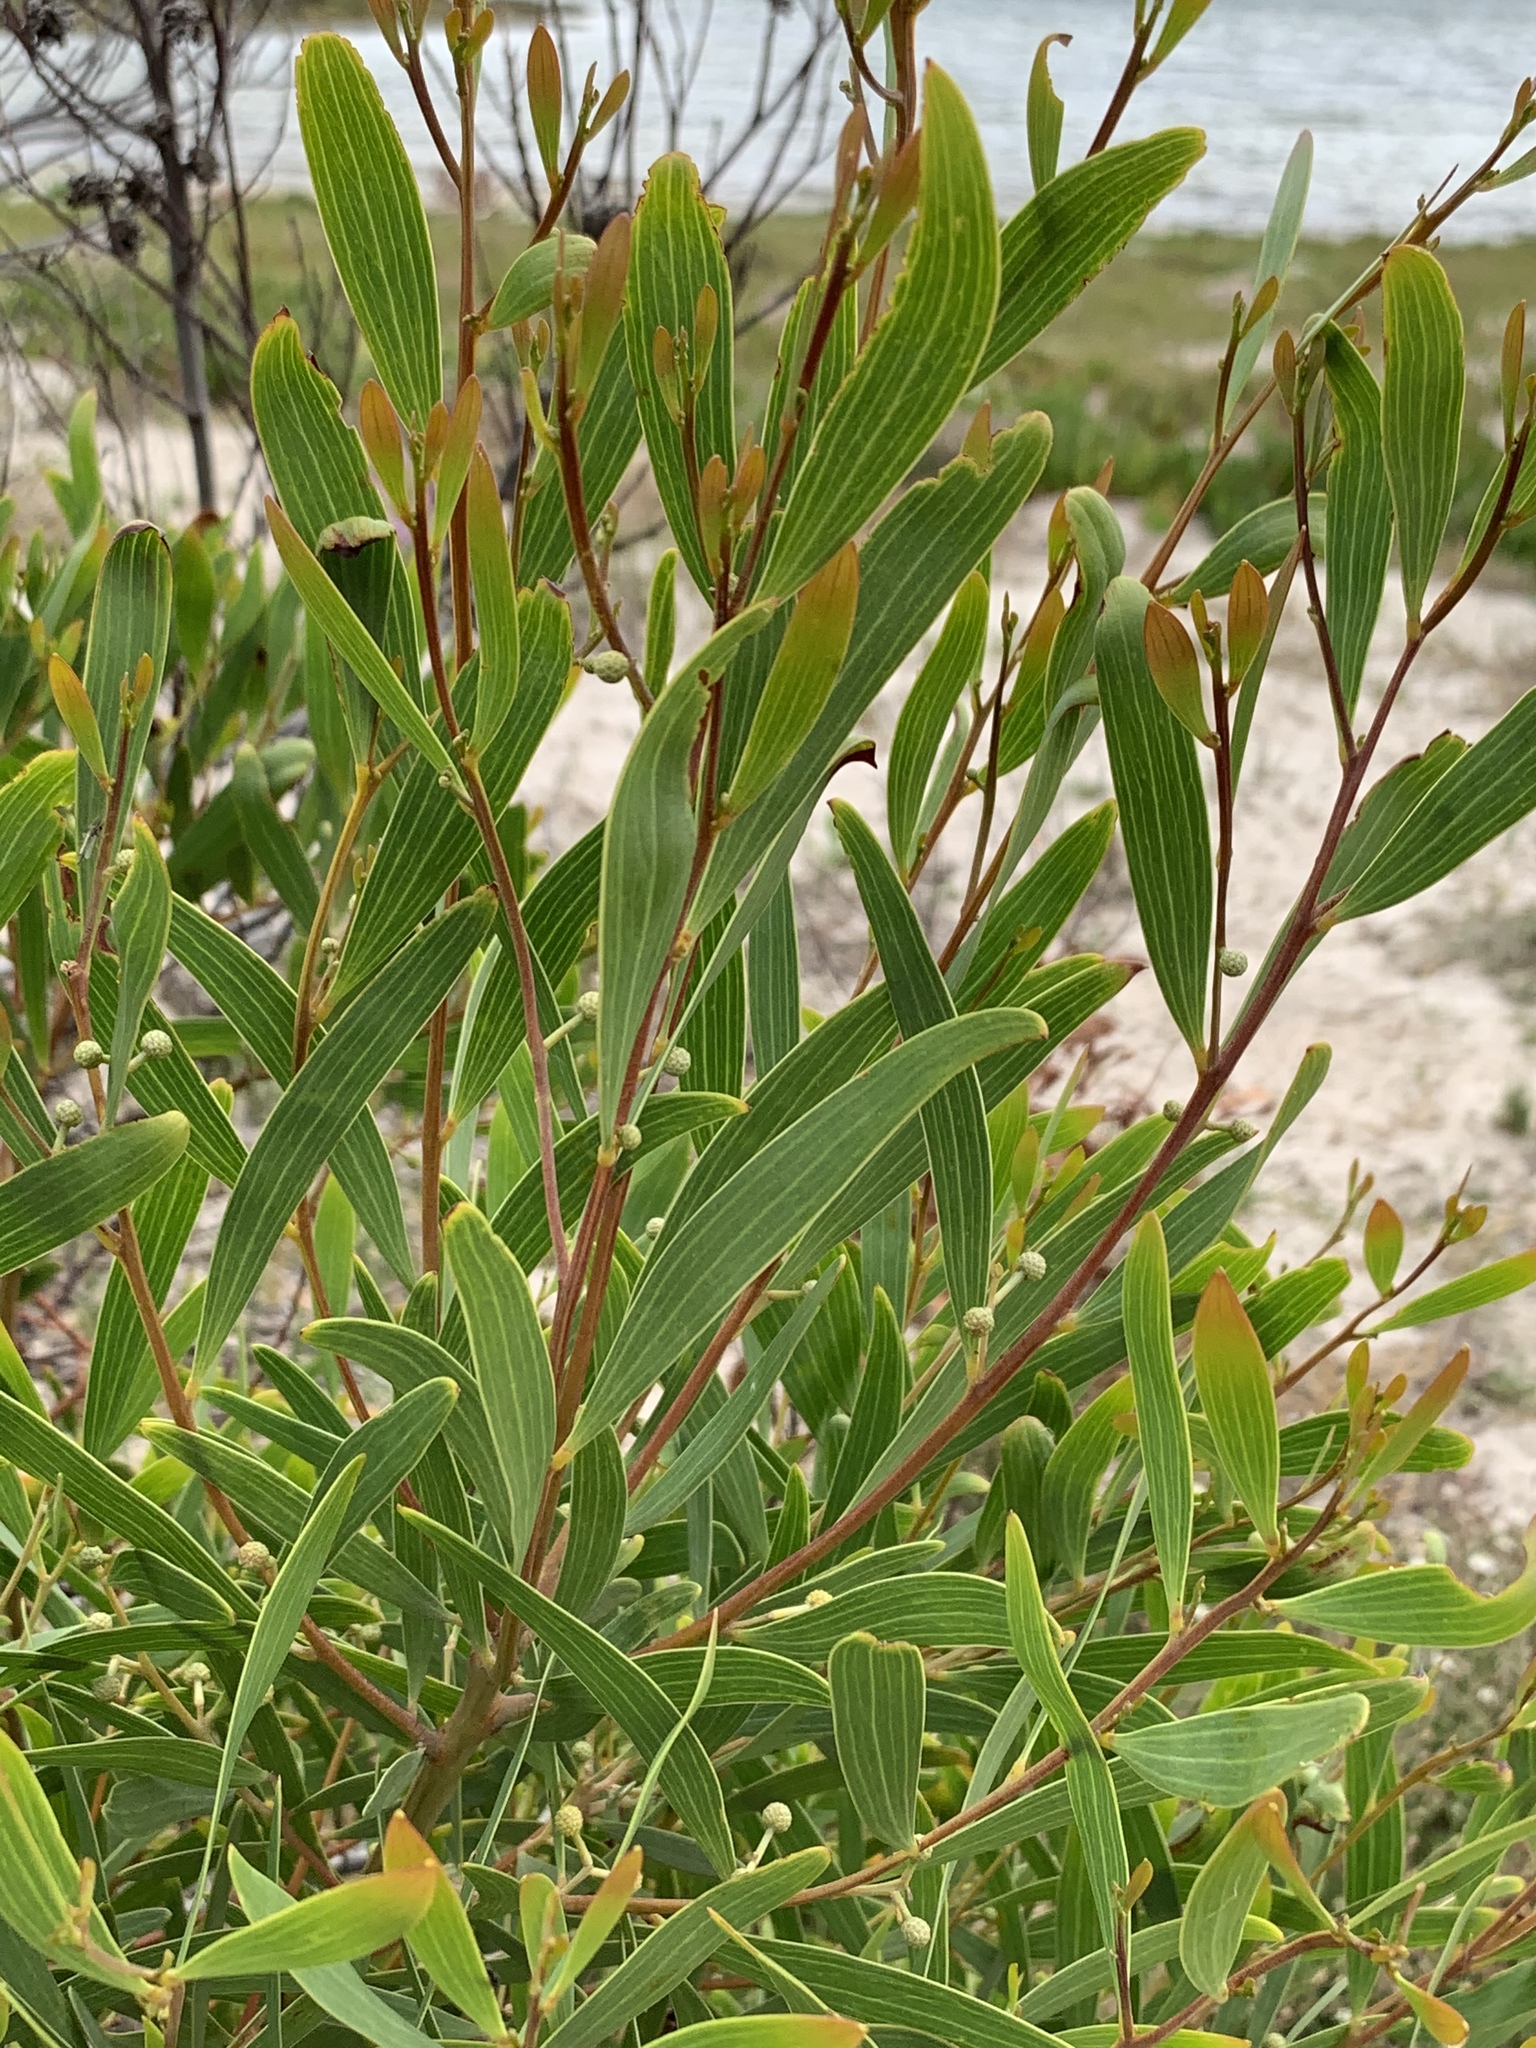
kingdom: Plantae
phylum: Tracheophyta
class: Magnoliopsida
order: Fabales
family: Fabaceae
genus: Acacia
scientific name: Acacia cyclops
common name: Coastal wattle
